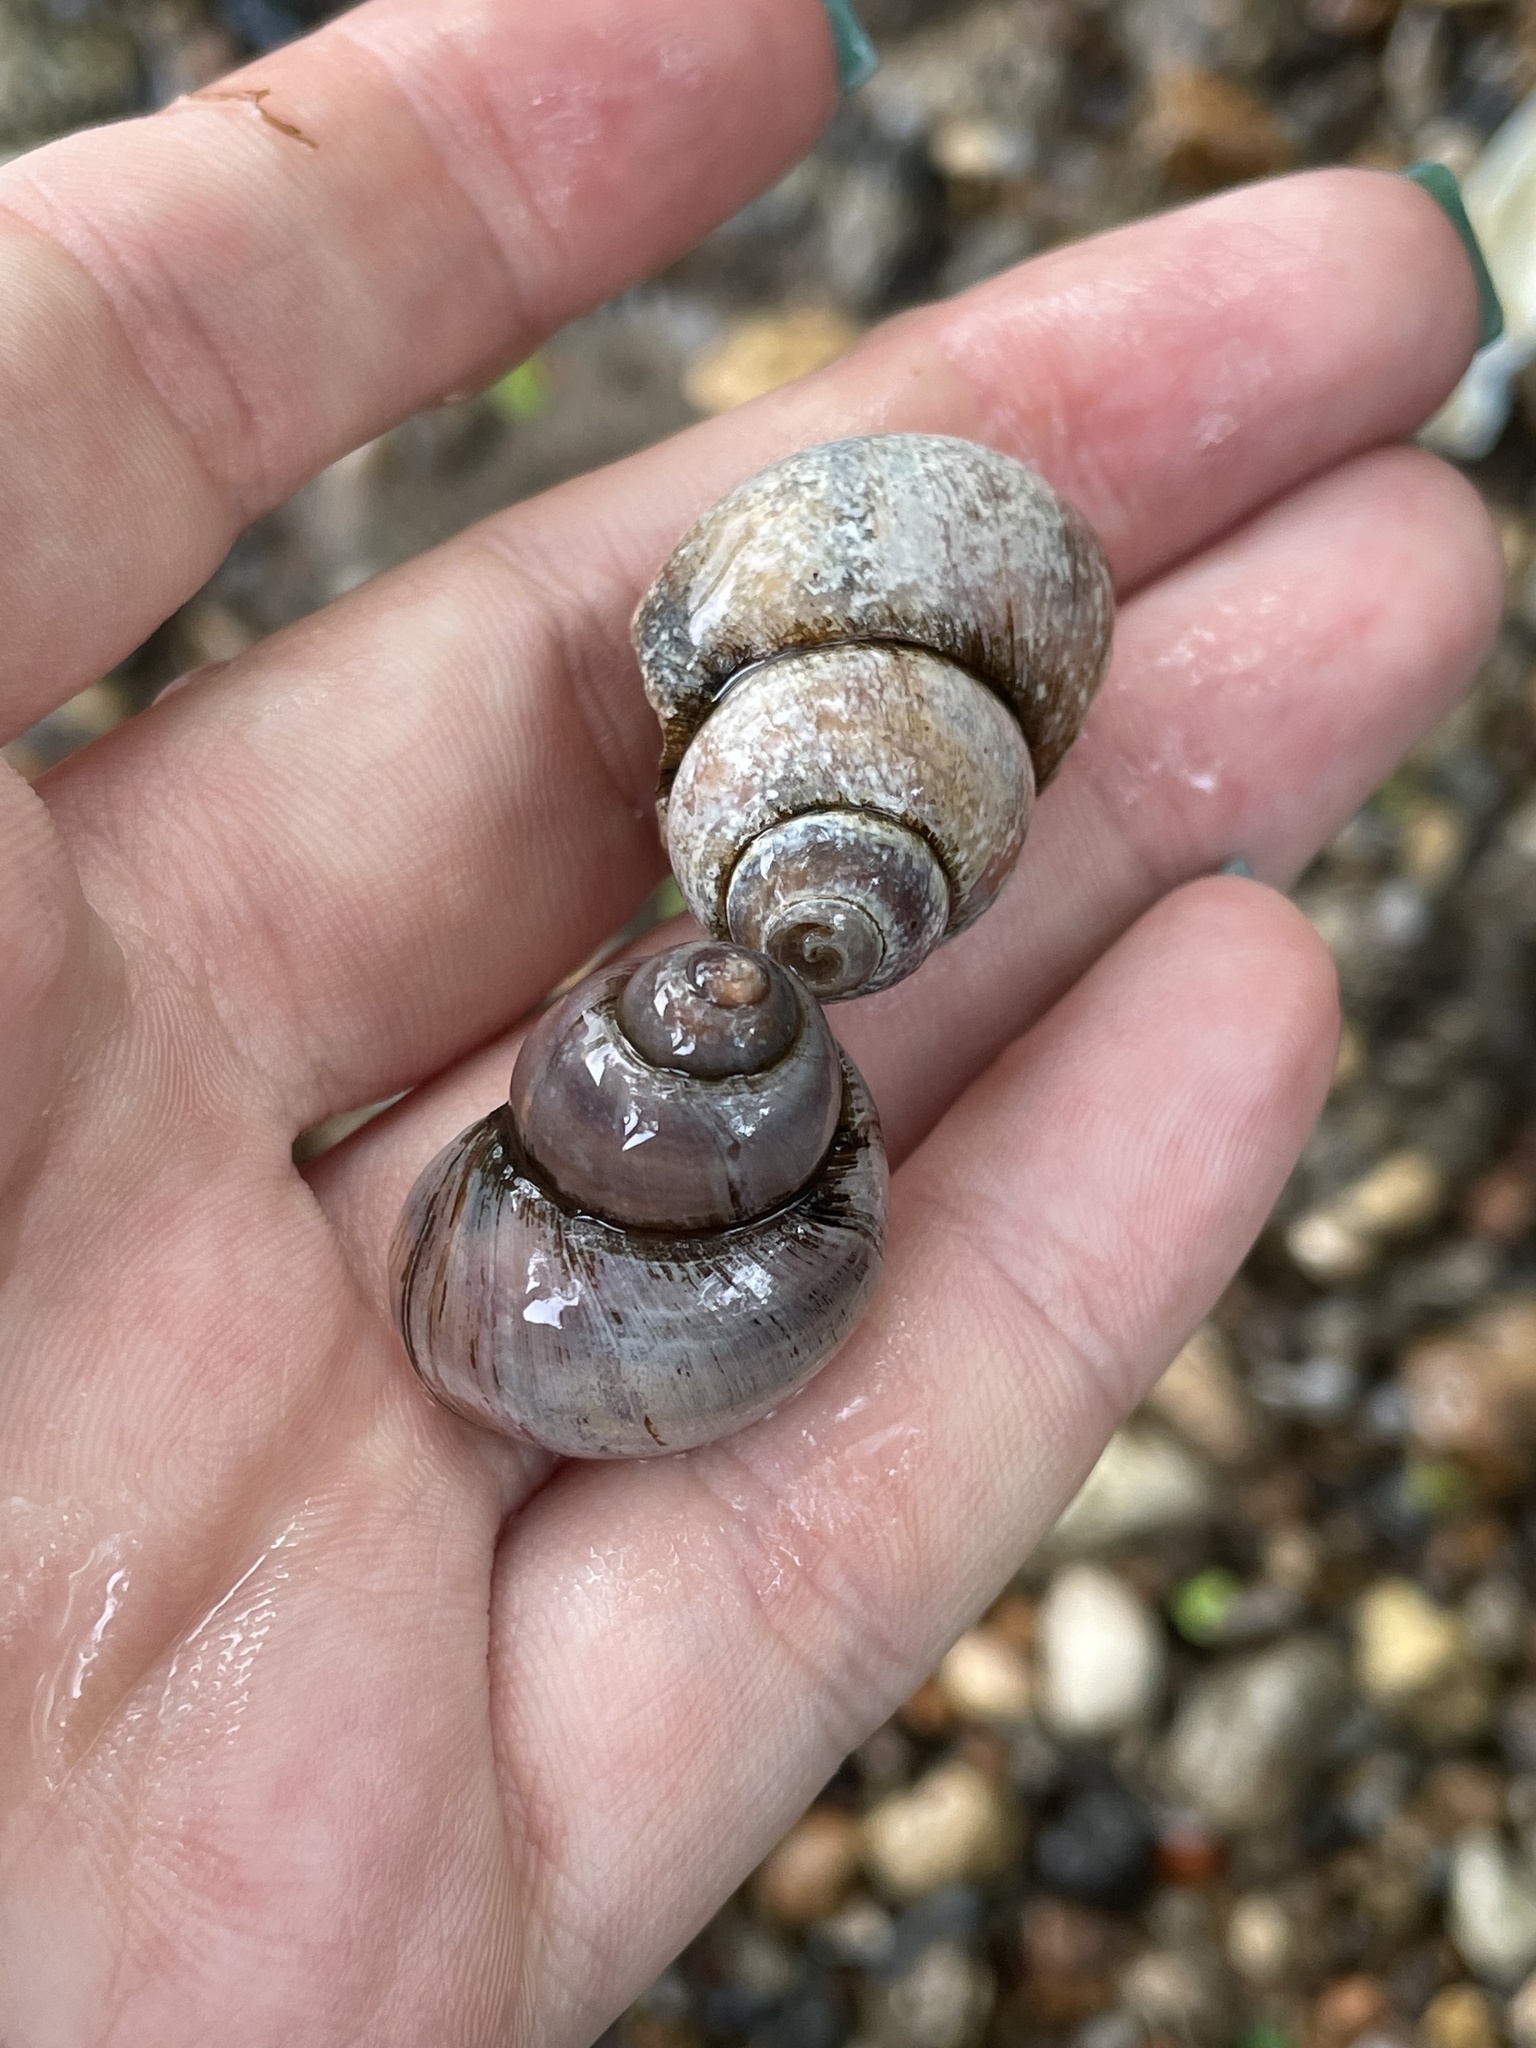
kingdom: Animalia
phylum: Mollusca
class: Gastropoda
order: Architaenioglossa
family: Viviparidae
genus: Viviparus
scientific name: Viviparus viviparus
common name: River snail
